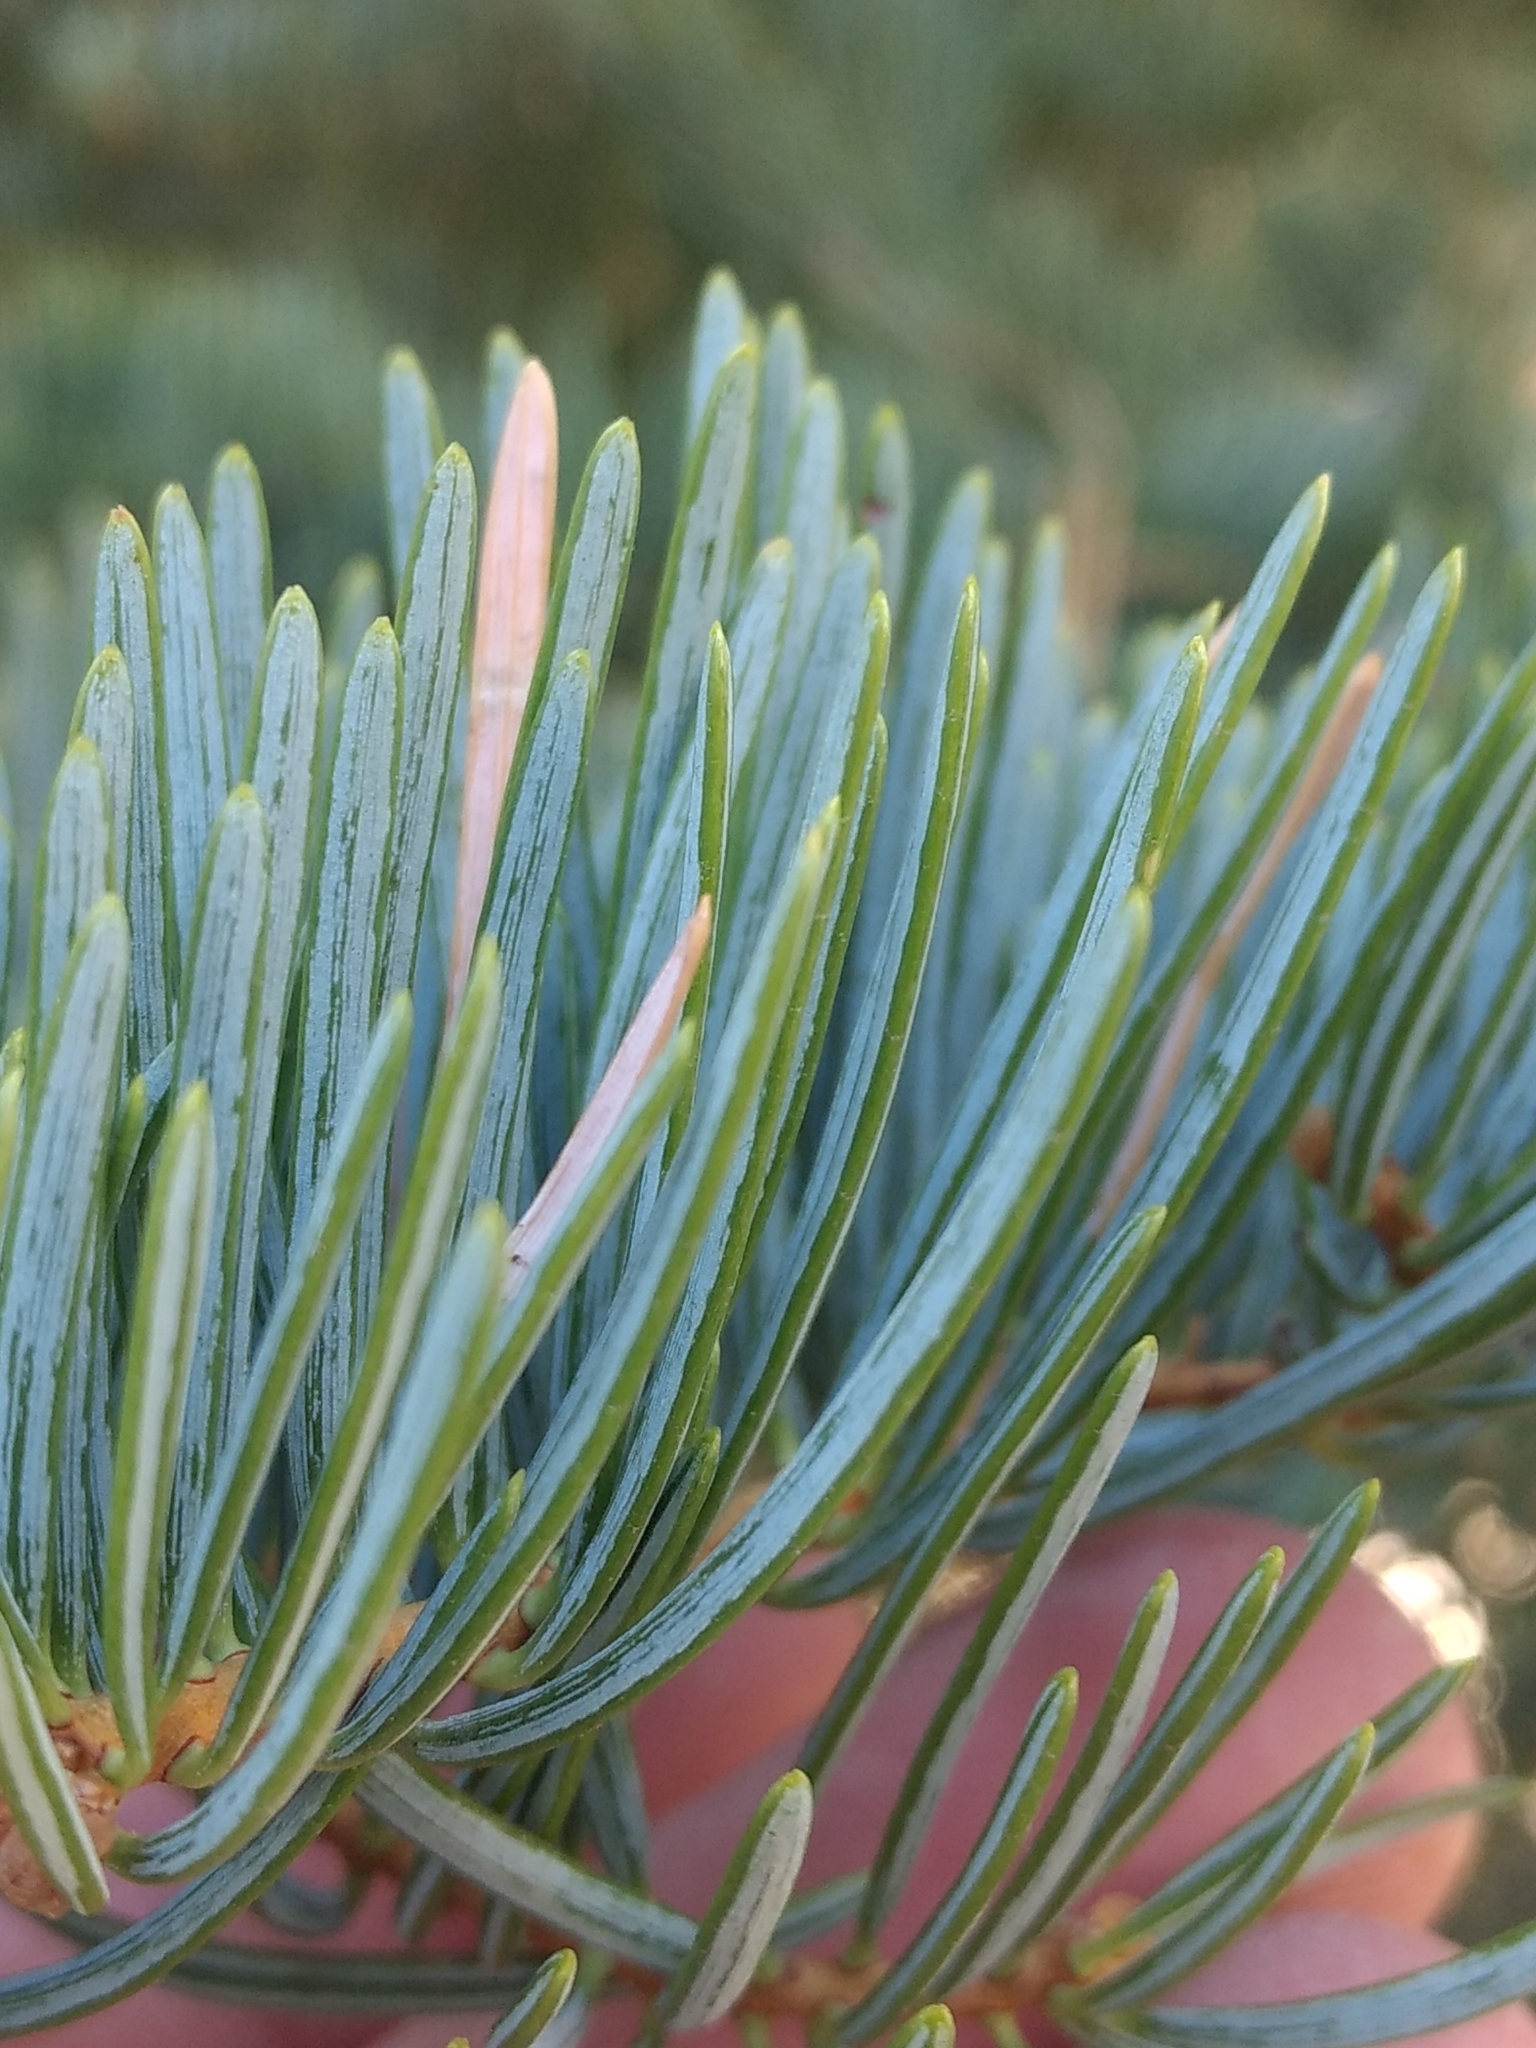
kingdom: Plantae
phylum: Tracheophyta
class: Pinopsida
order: Pinales
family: Pinaceae
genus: Abies
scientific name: Abies concolor
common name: Colorado fir
